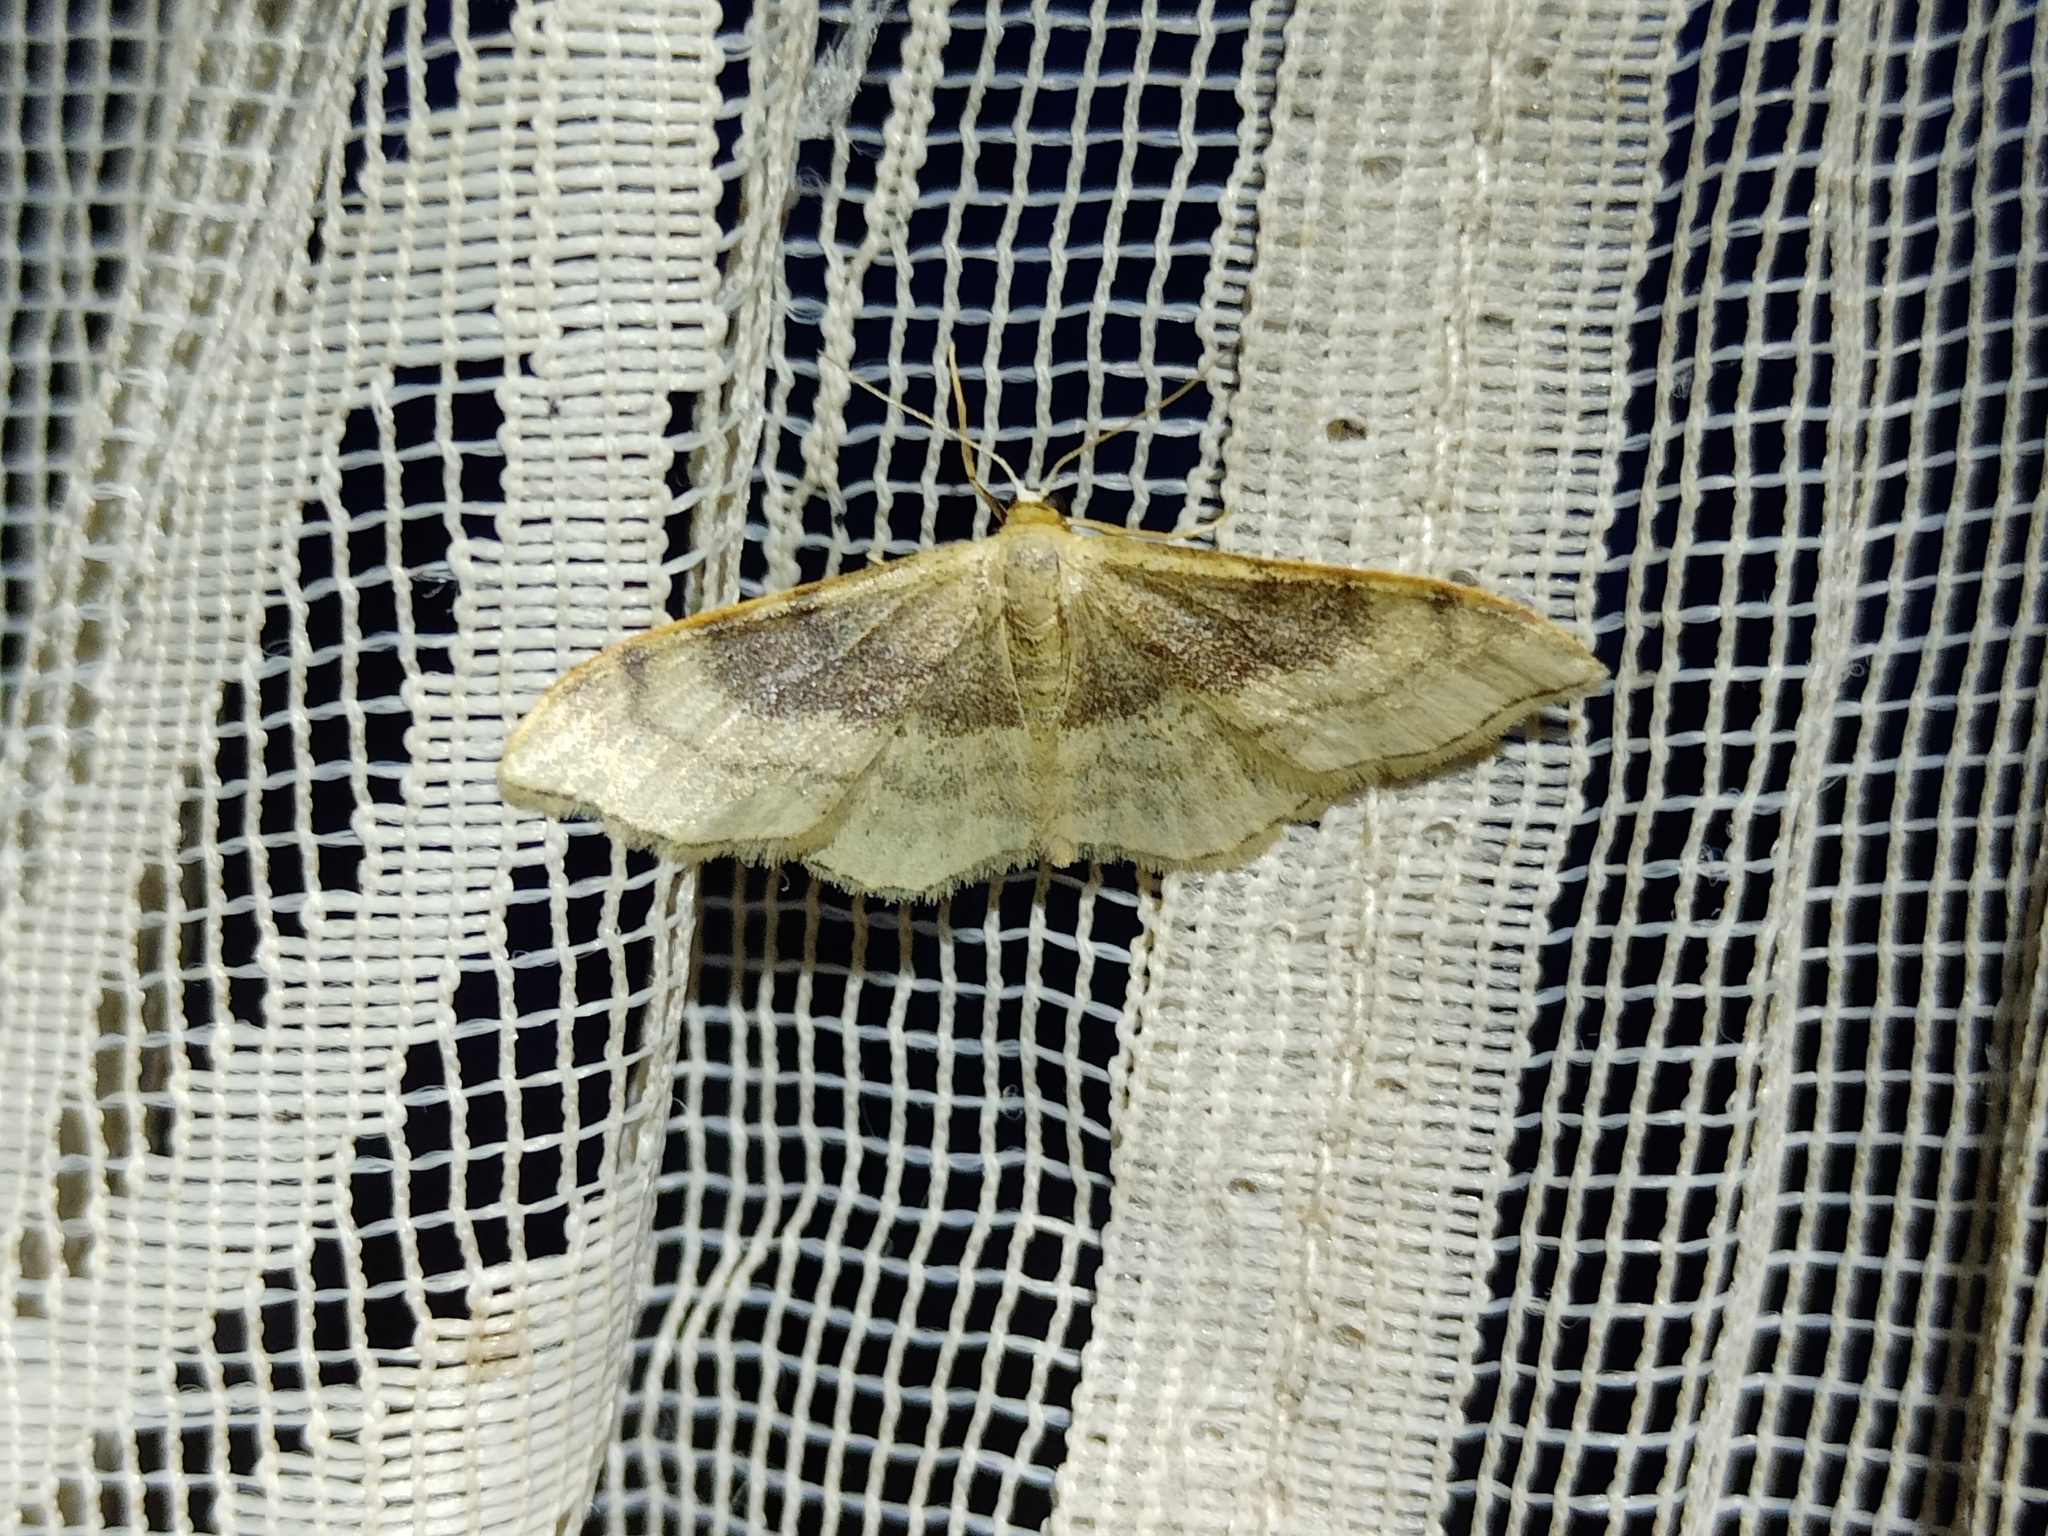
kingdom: Animalia
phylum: Arthropoda
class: Insecta
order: Lepidoptera
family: Geometridae
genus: Idaea
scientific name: Idaea degeneraria
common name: Portland ribbon wave
